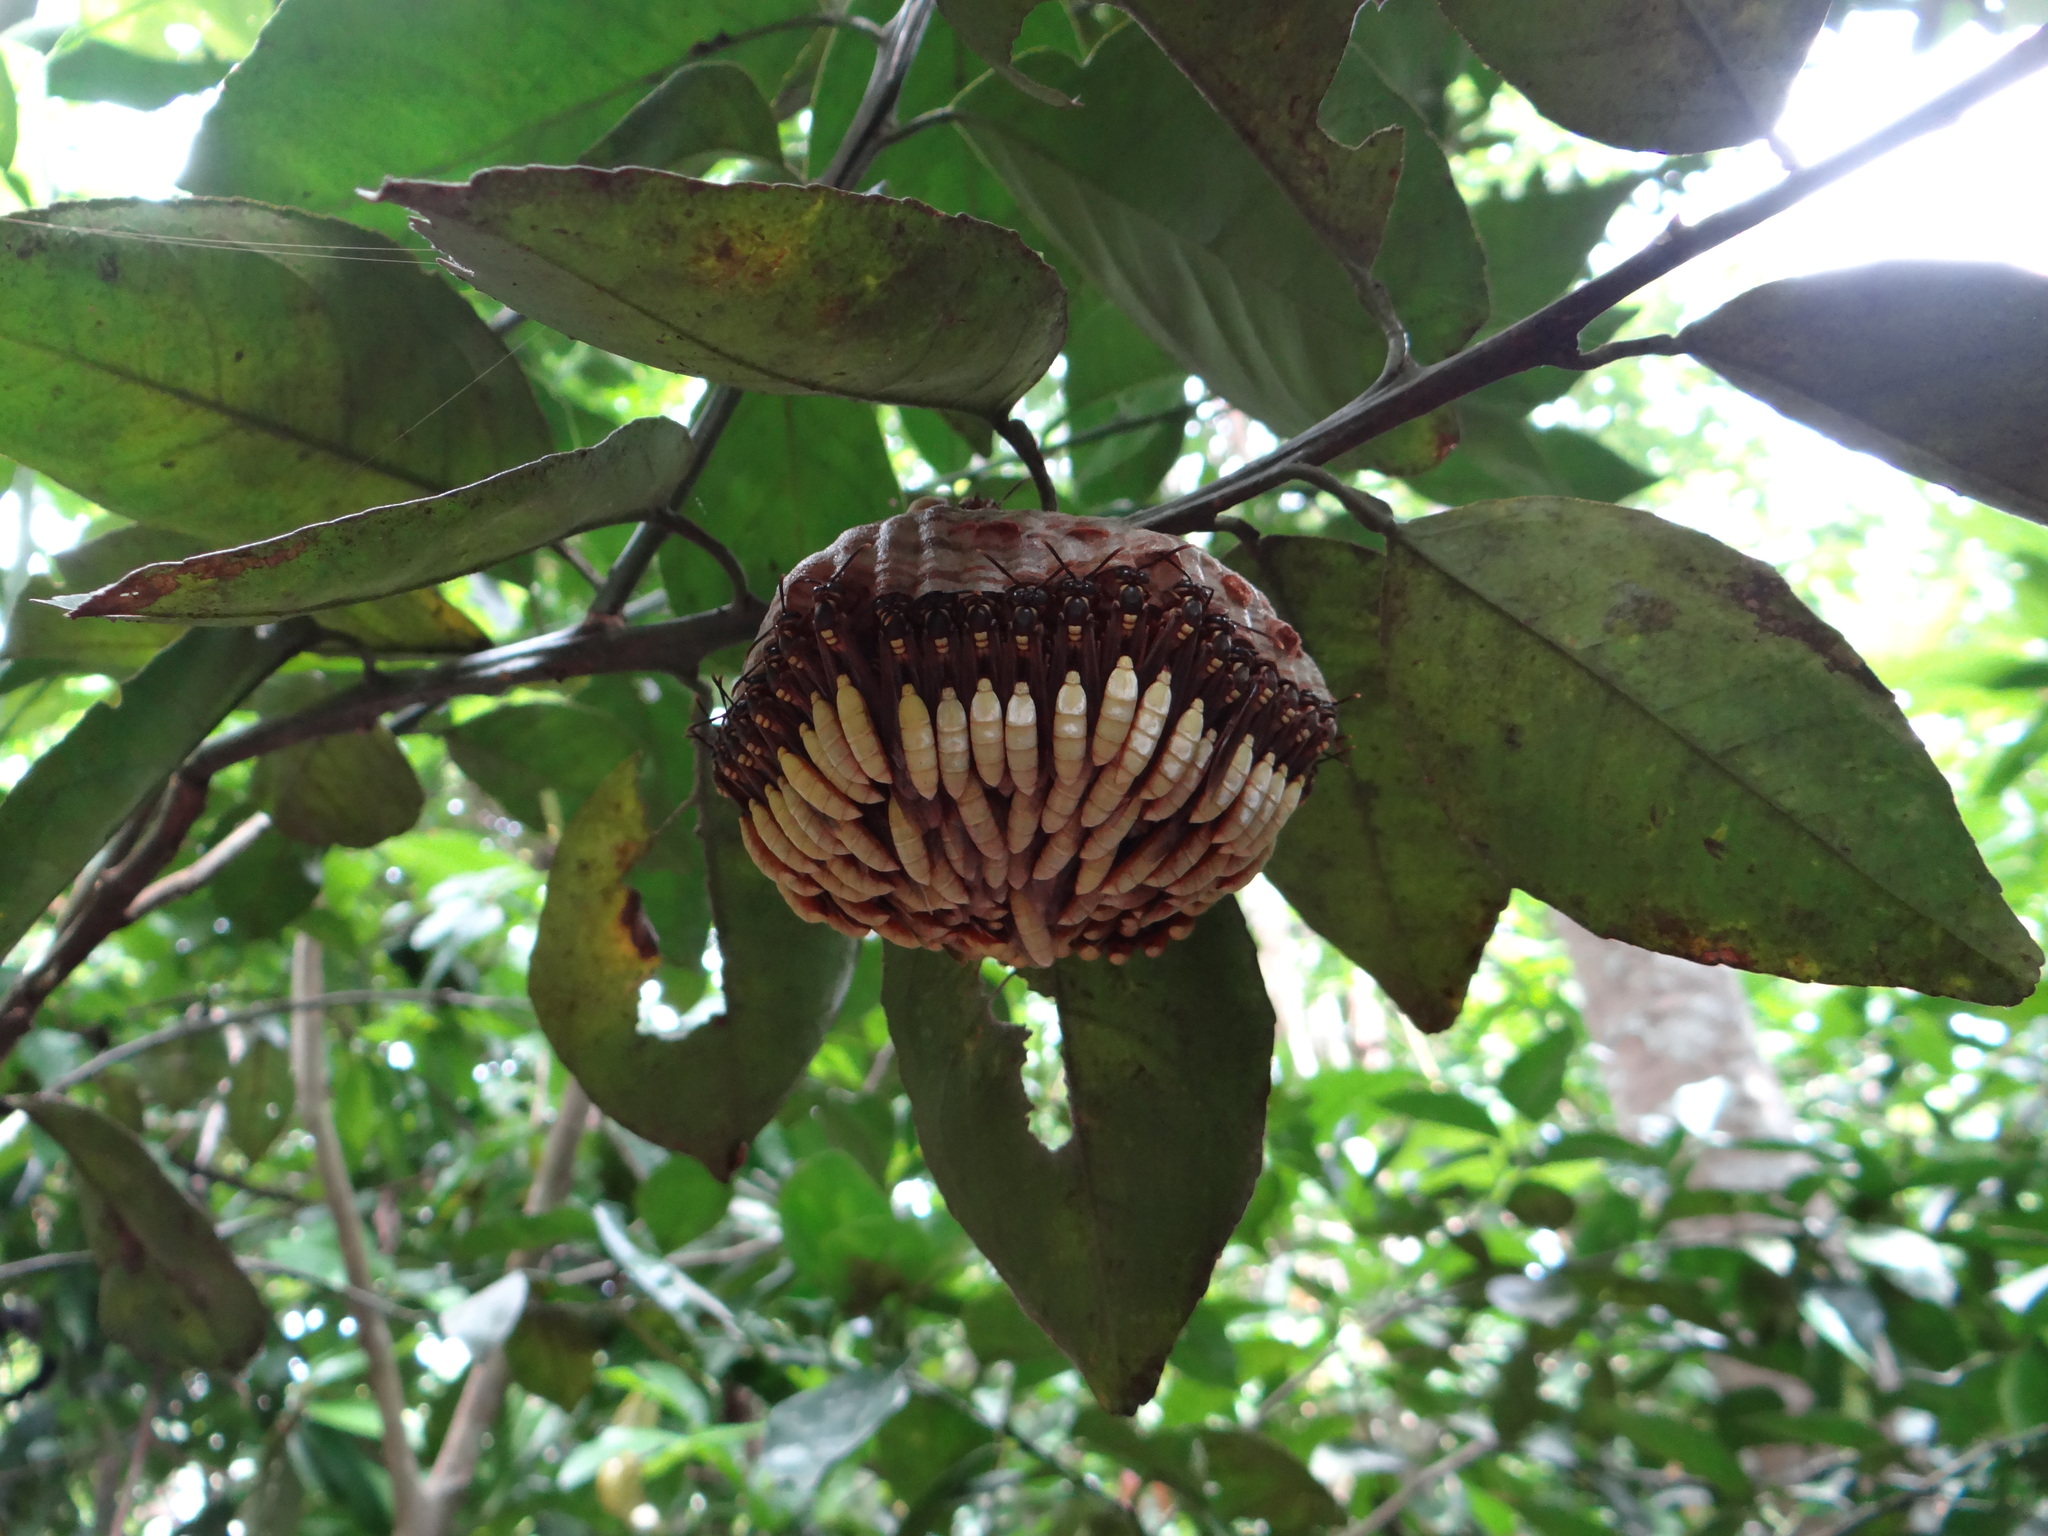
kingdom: Animalia
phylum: Arthropoda
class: Insecta
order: Hymenoptera
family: Vespidae
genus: Apoica
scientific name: Apoica pallens
